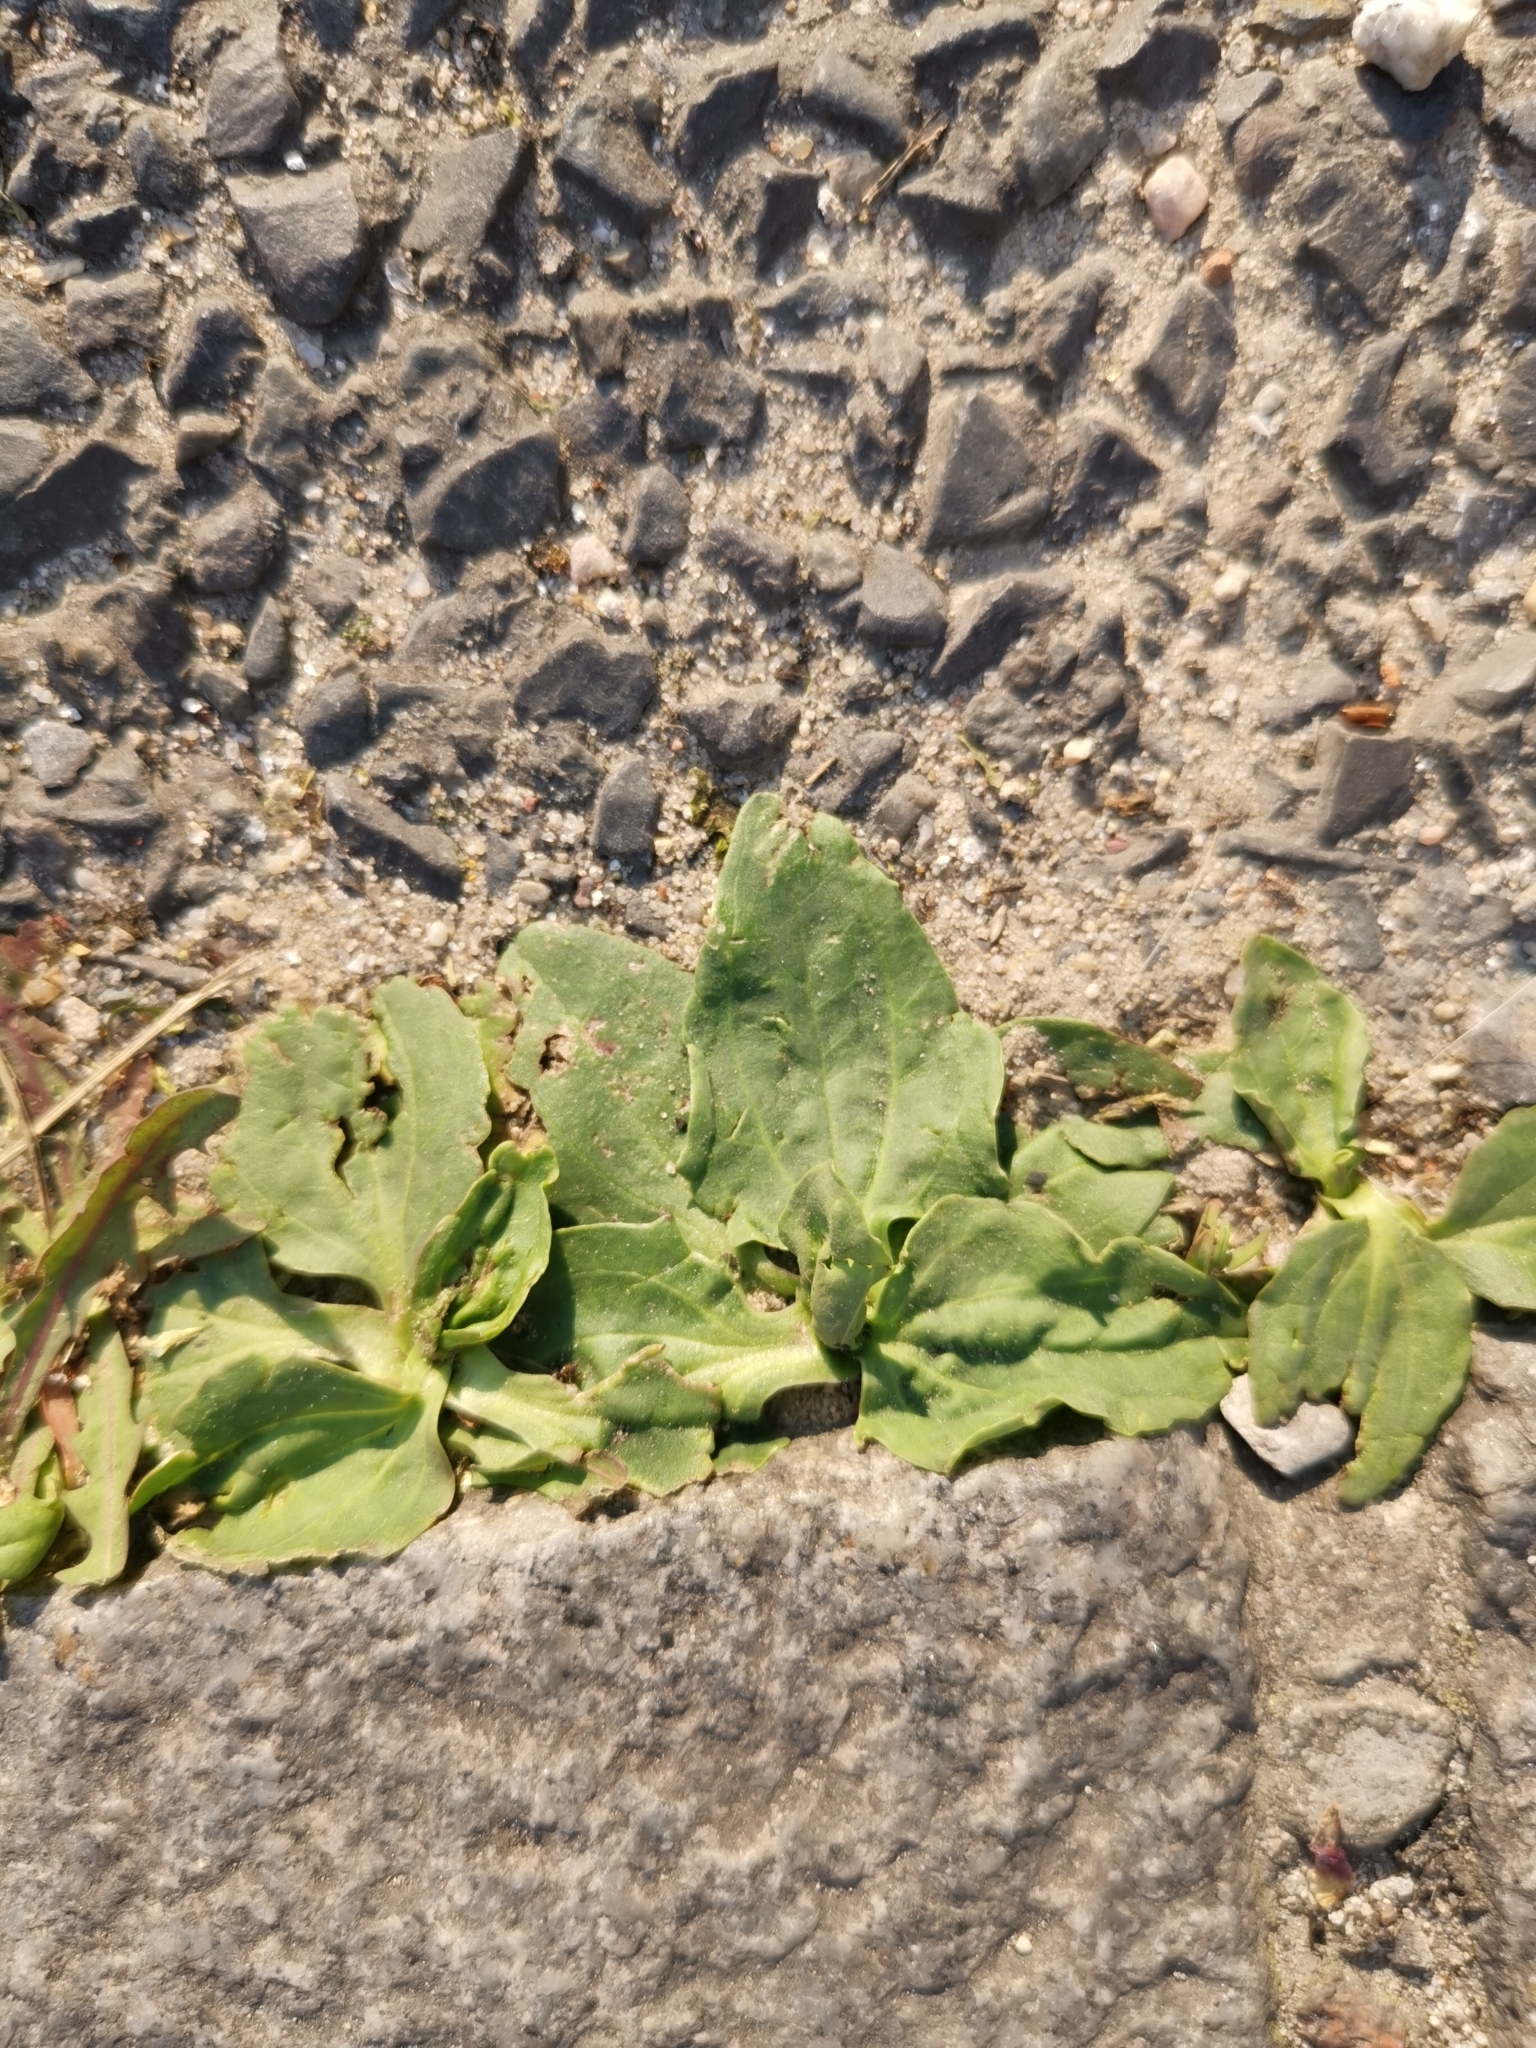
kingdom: Plantae
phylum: Tracheophyta
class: Magnoliopsida
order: Lamiales
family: Plantaginaceae
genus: Plantago
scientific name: Plantago major
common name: Common plantain
